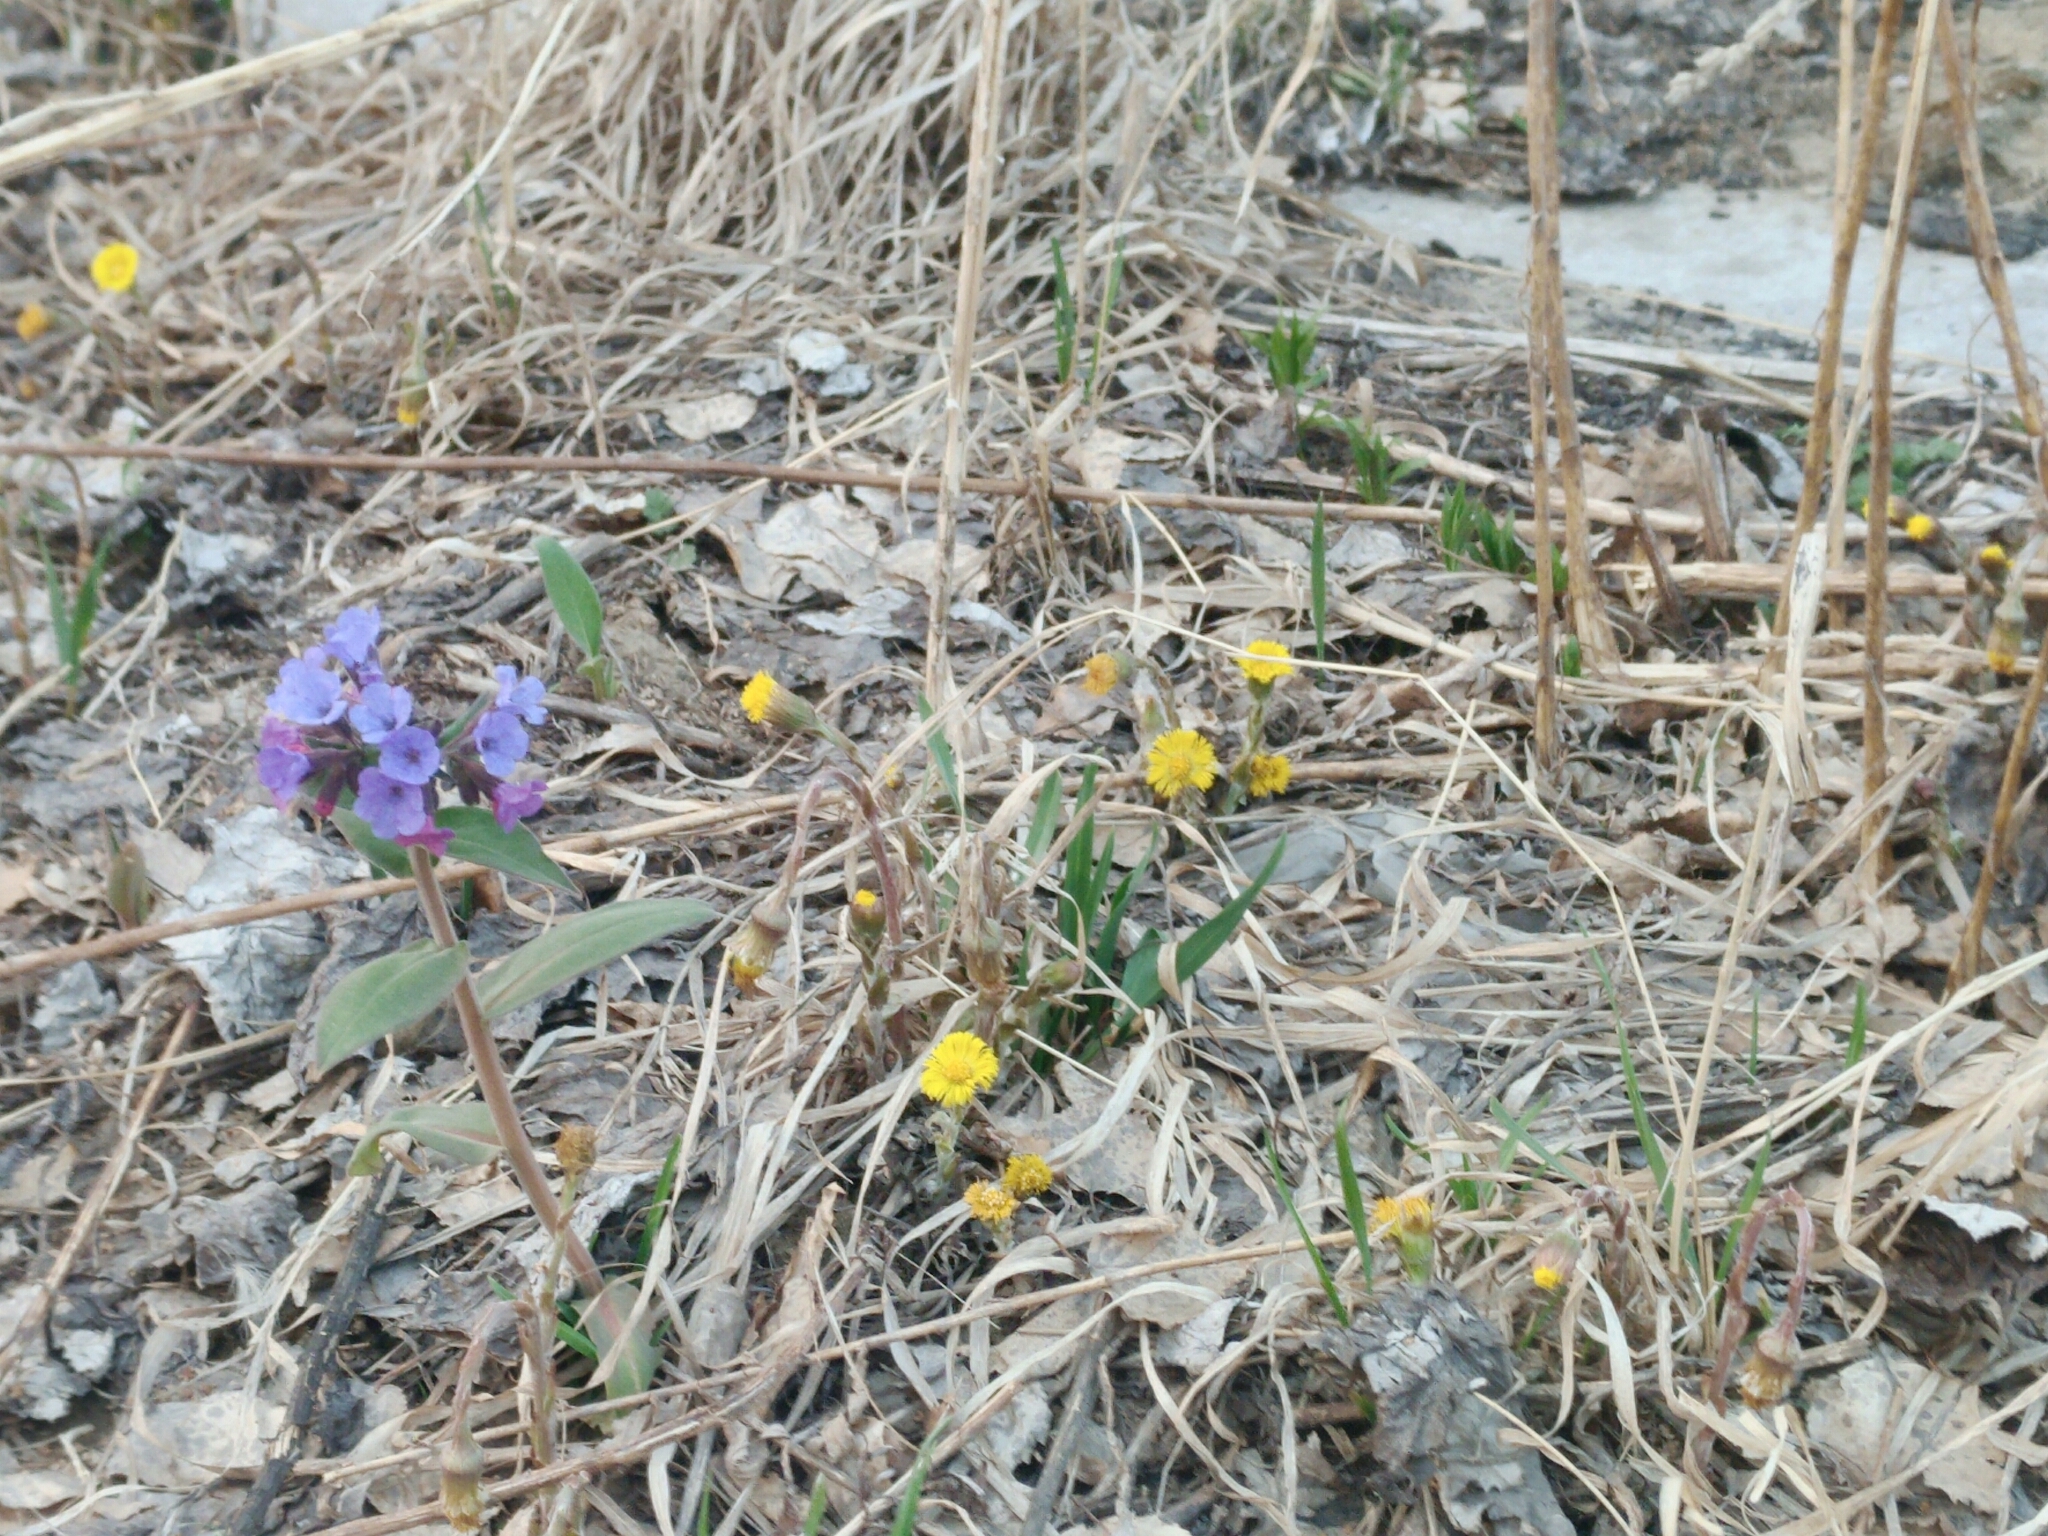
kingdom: Plantae
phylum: Tracheophyta
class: Magnoliopsida
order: Asterales
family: Asteraceae
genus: Tussilago
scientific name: Tussilago farfara
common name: Coltsfoot
